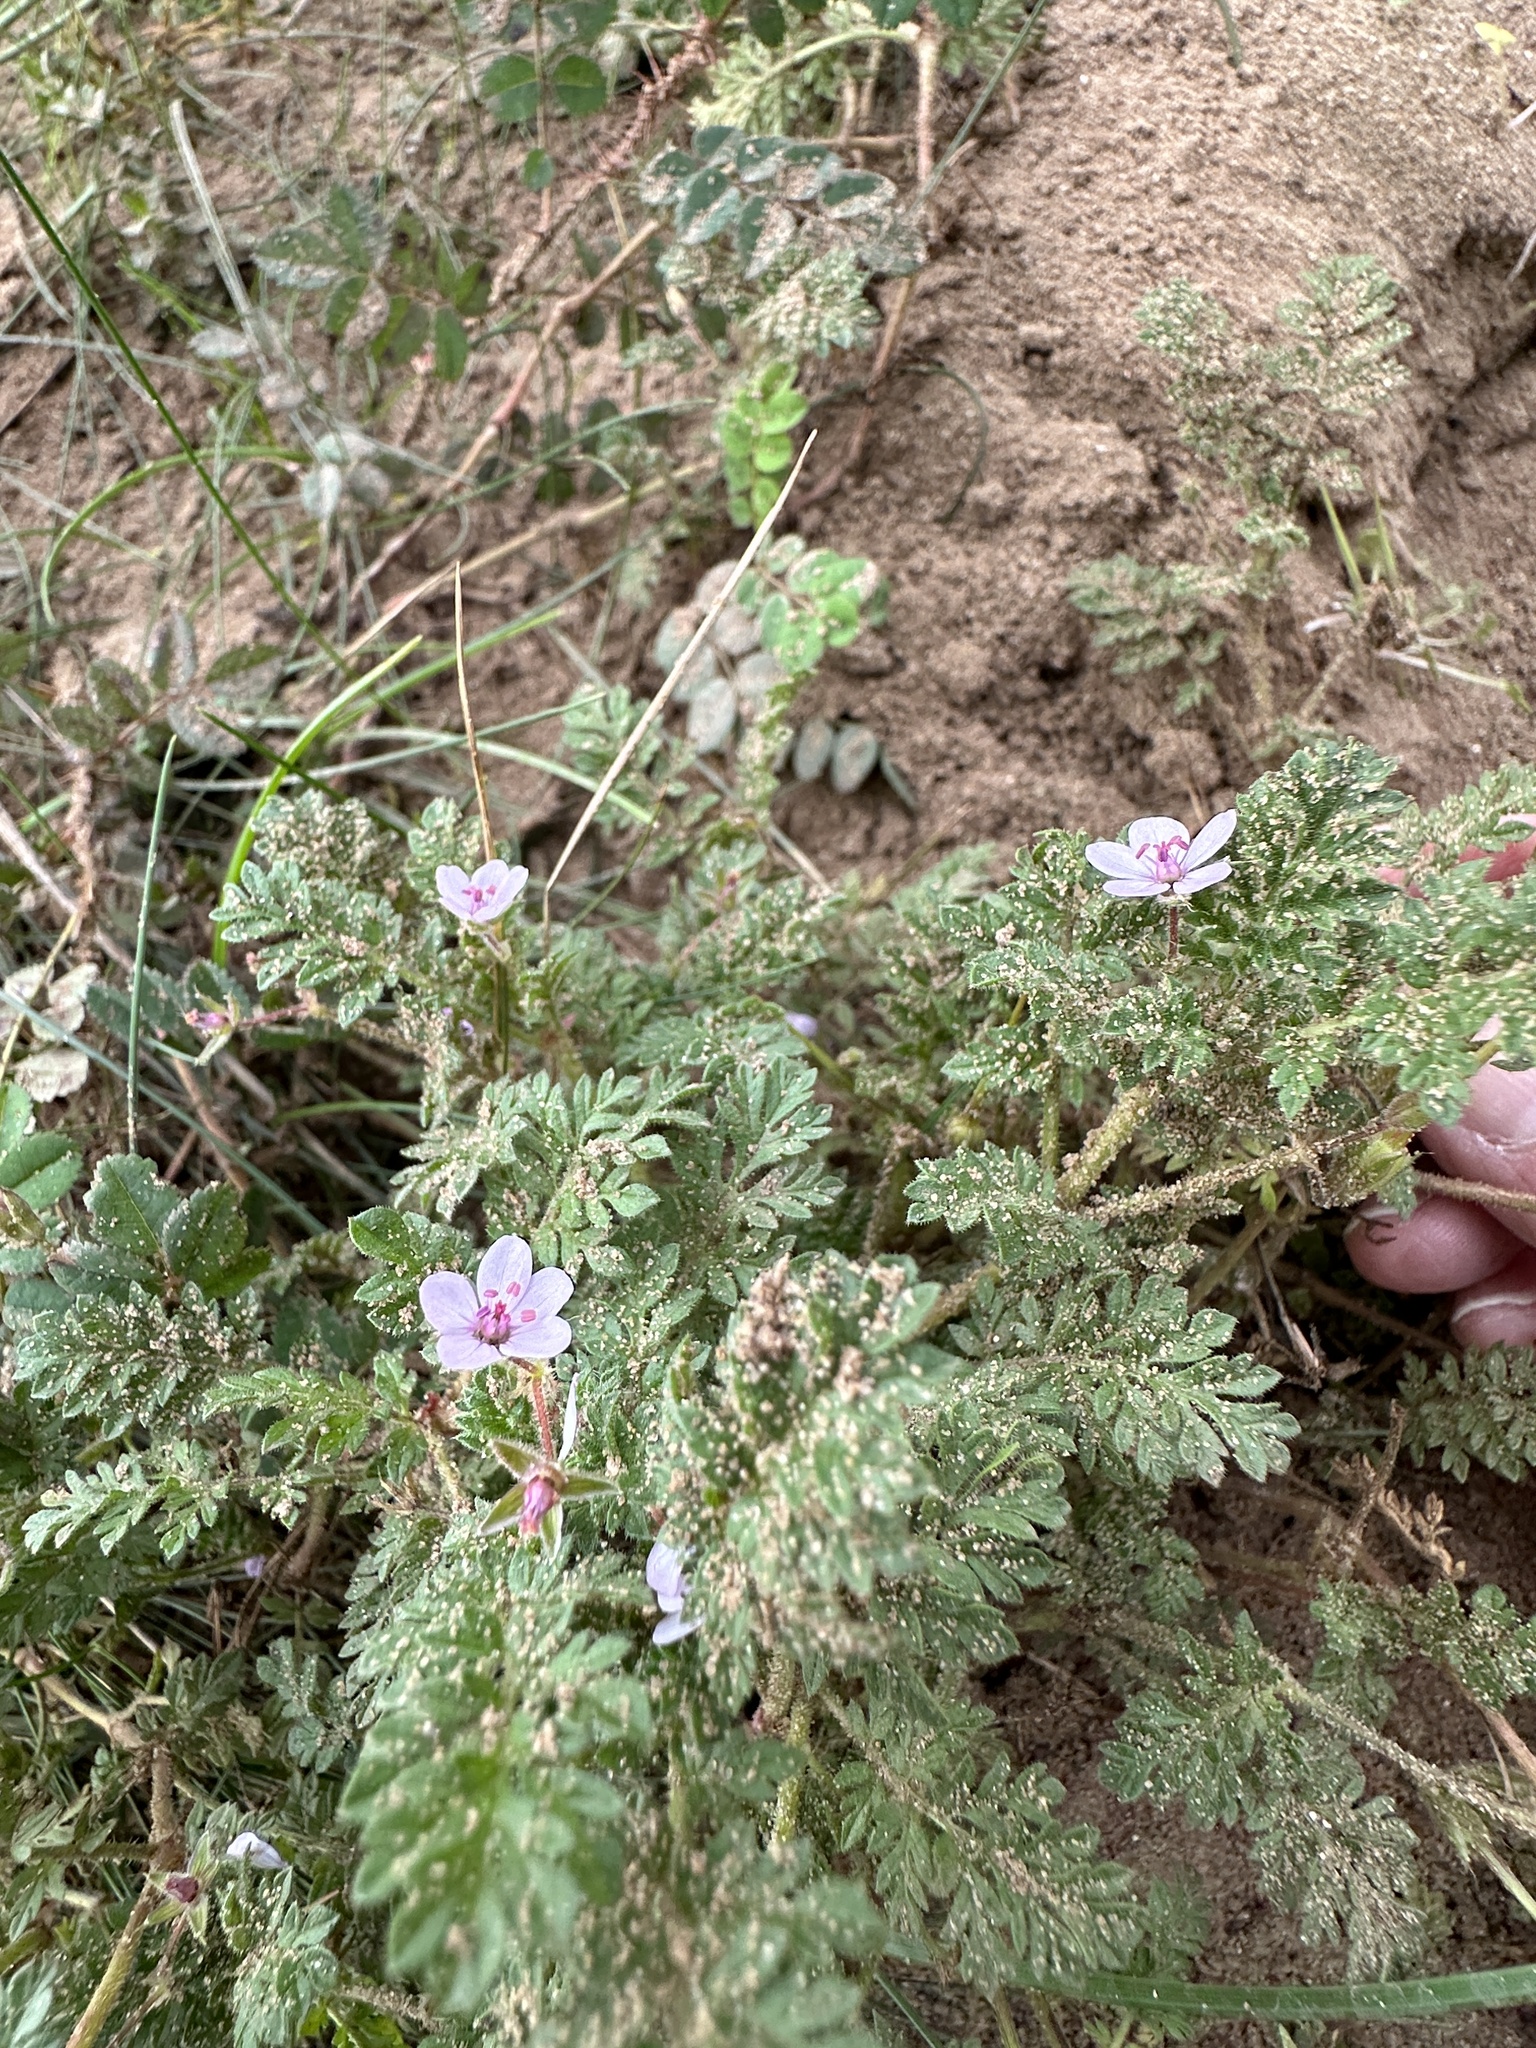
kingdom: Plantae
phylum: Tracheophyta
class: Magnoliopsida
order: Geraniales
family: Geraniaceae
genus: Erodium
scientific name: Erodium lebelii
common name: Sticky stork's-bill
